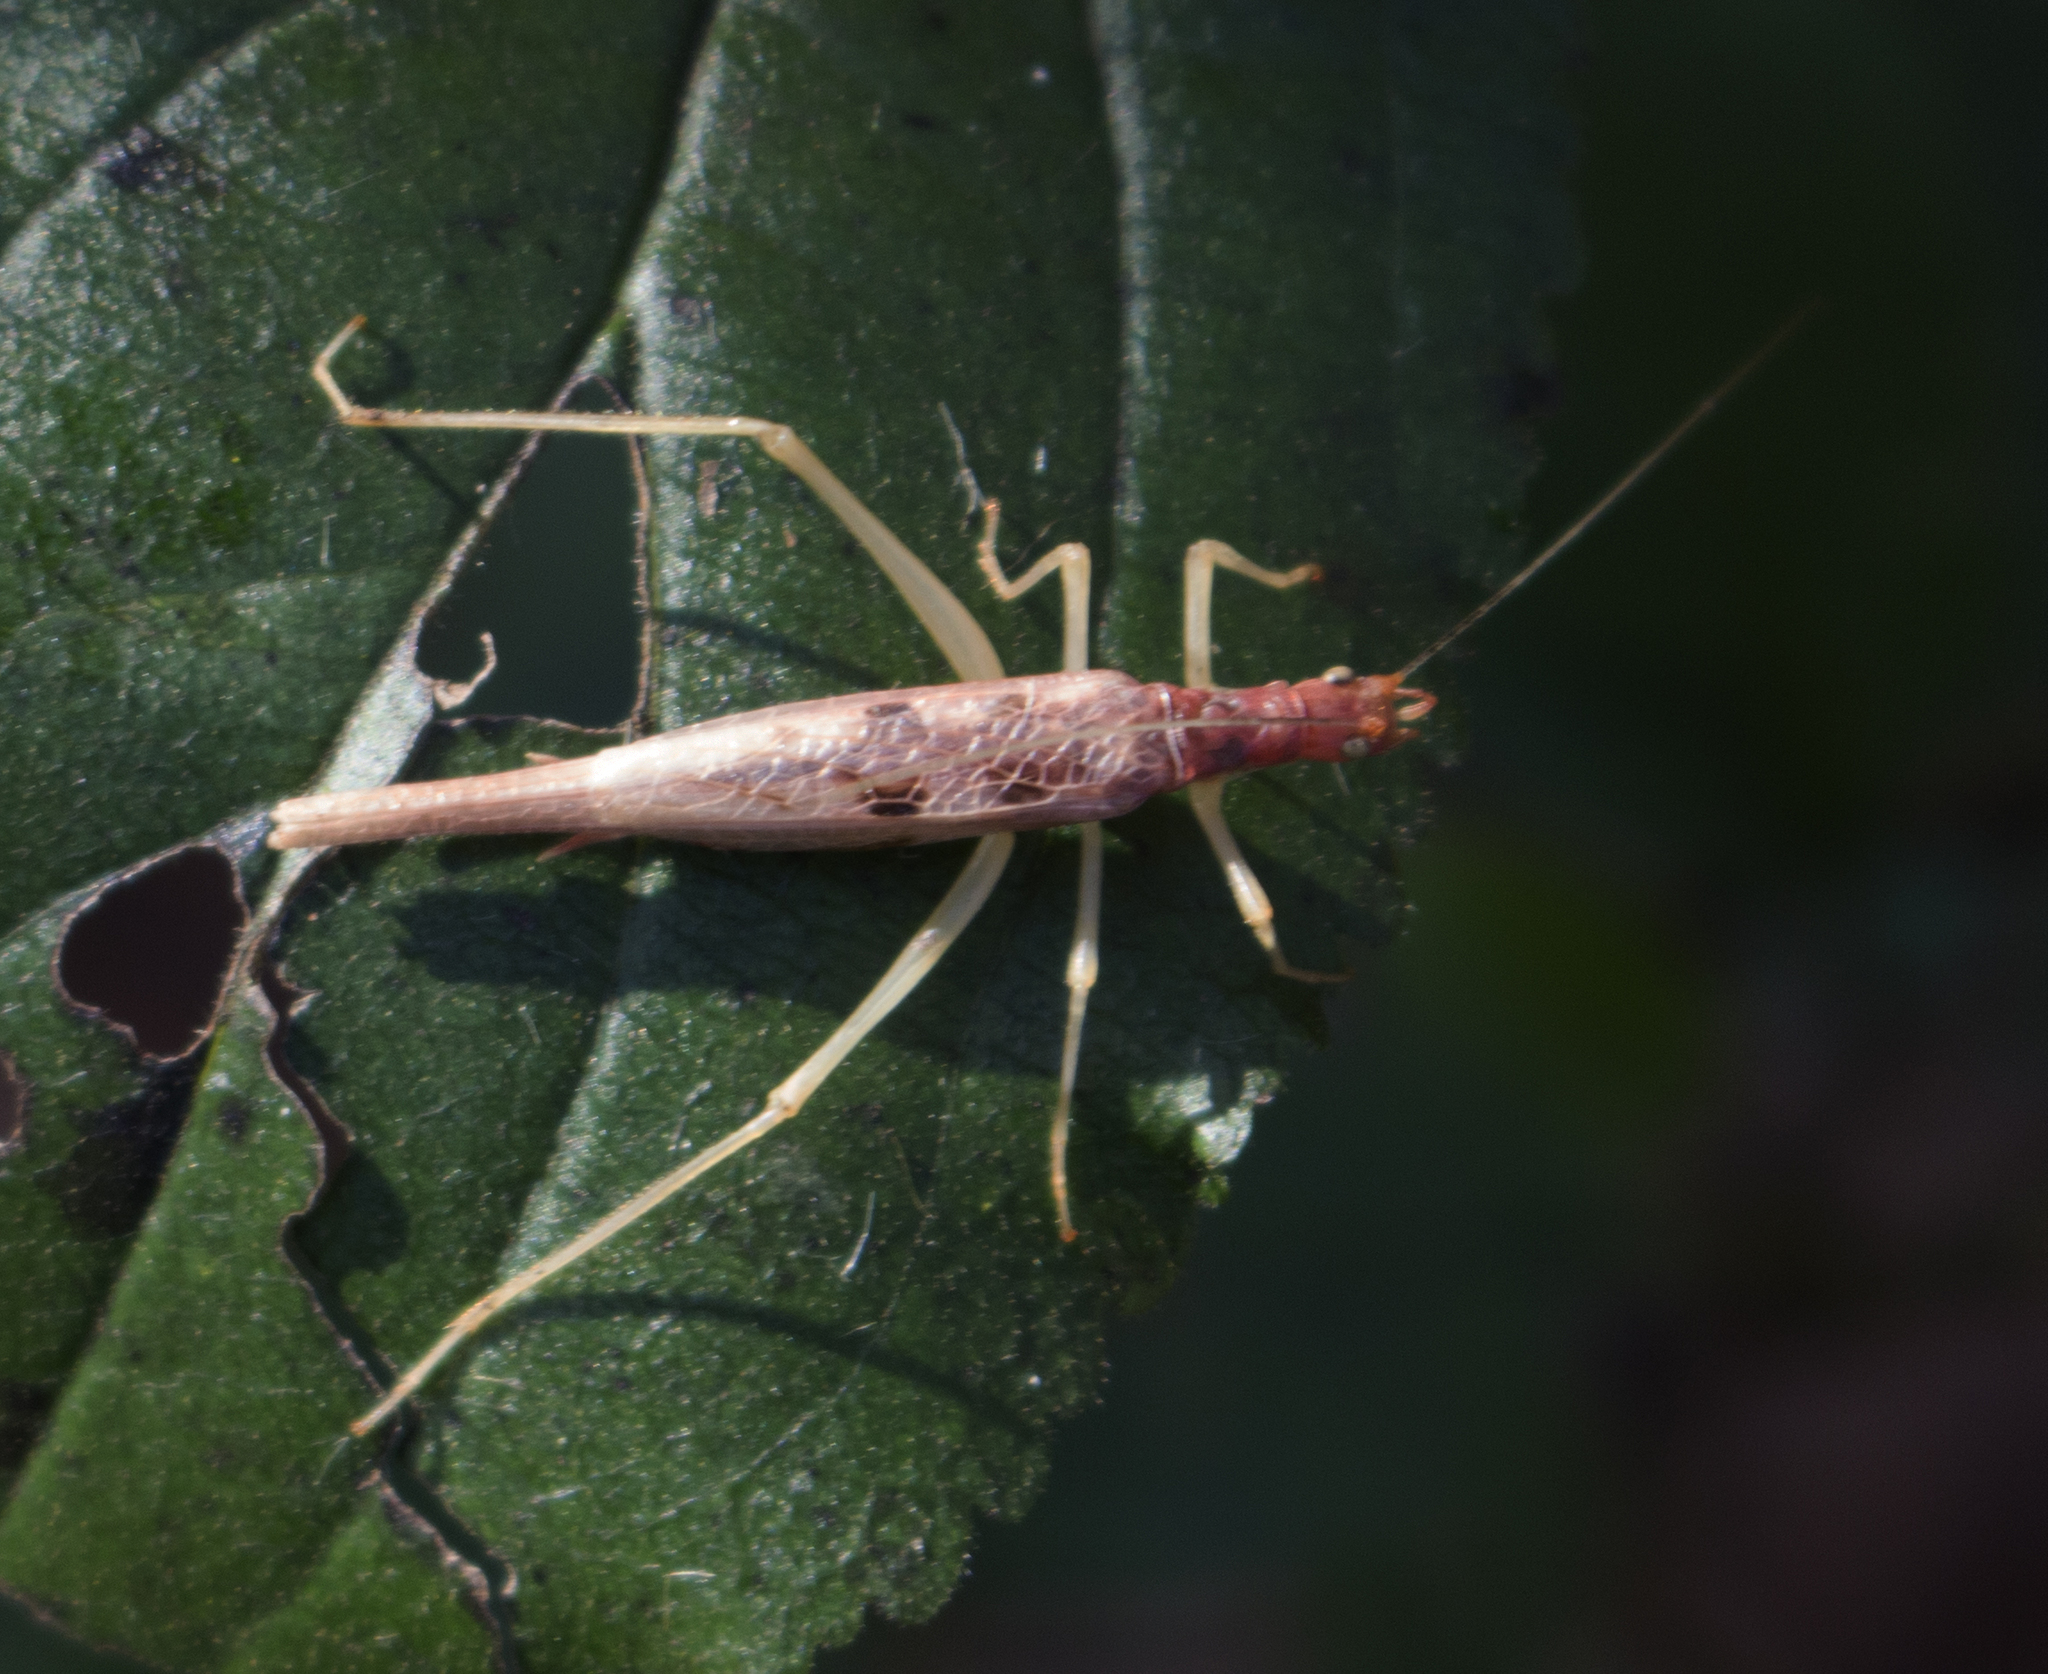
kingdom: Animalia
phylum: Arthropoda
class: Insecta
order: Orthoptera
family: Gryllidae
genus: Neoxabea
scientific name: Neoxabea bipunctata
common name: Two-spotted tree cricket
